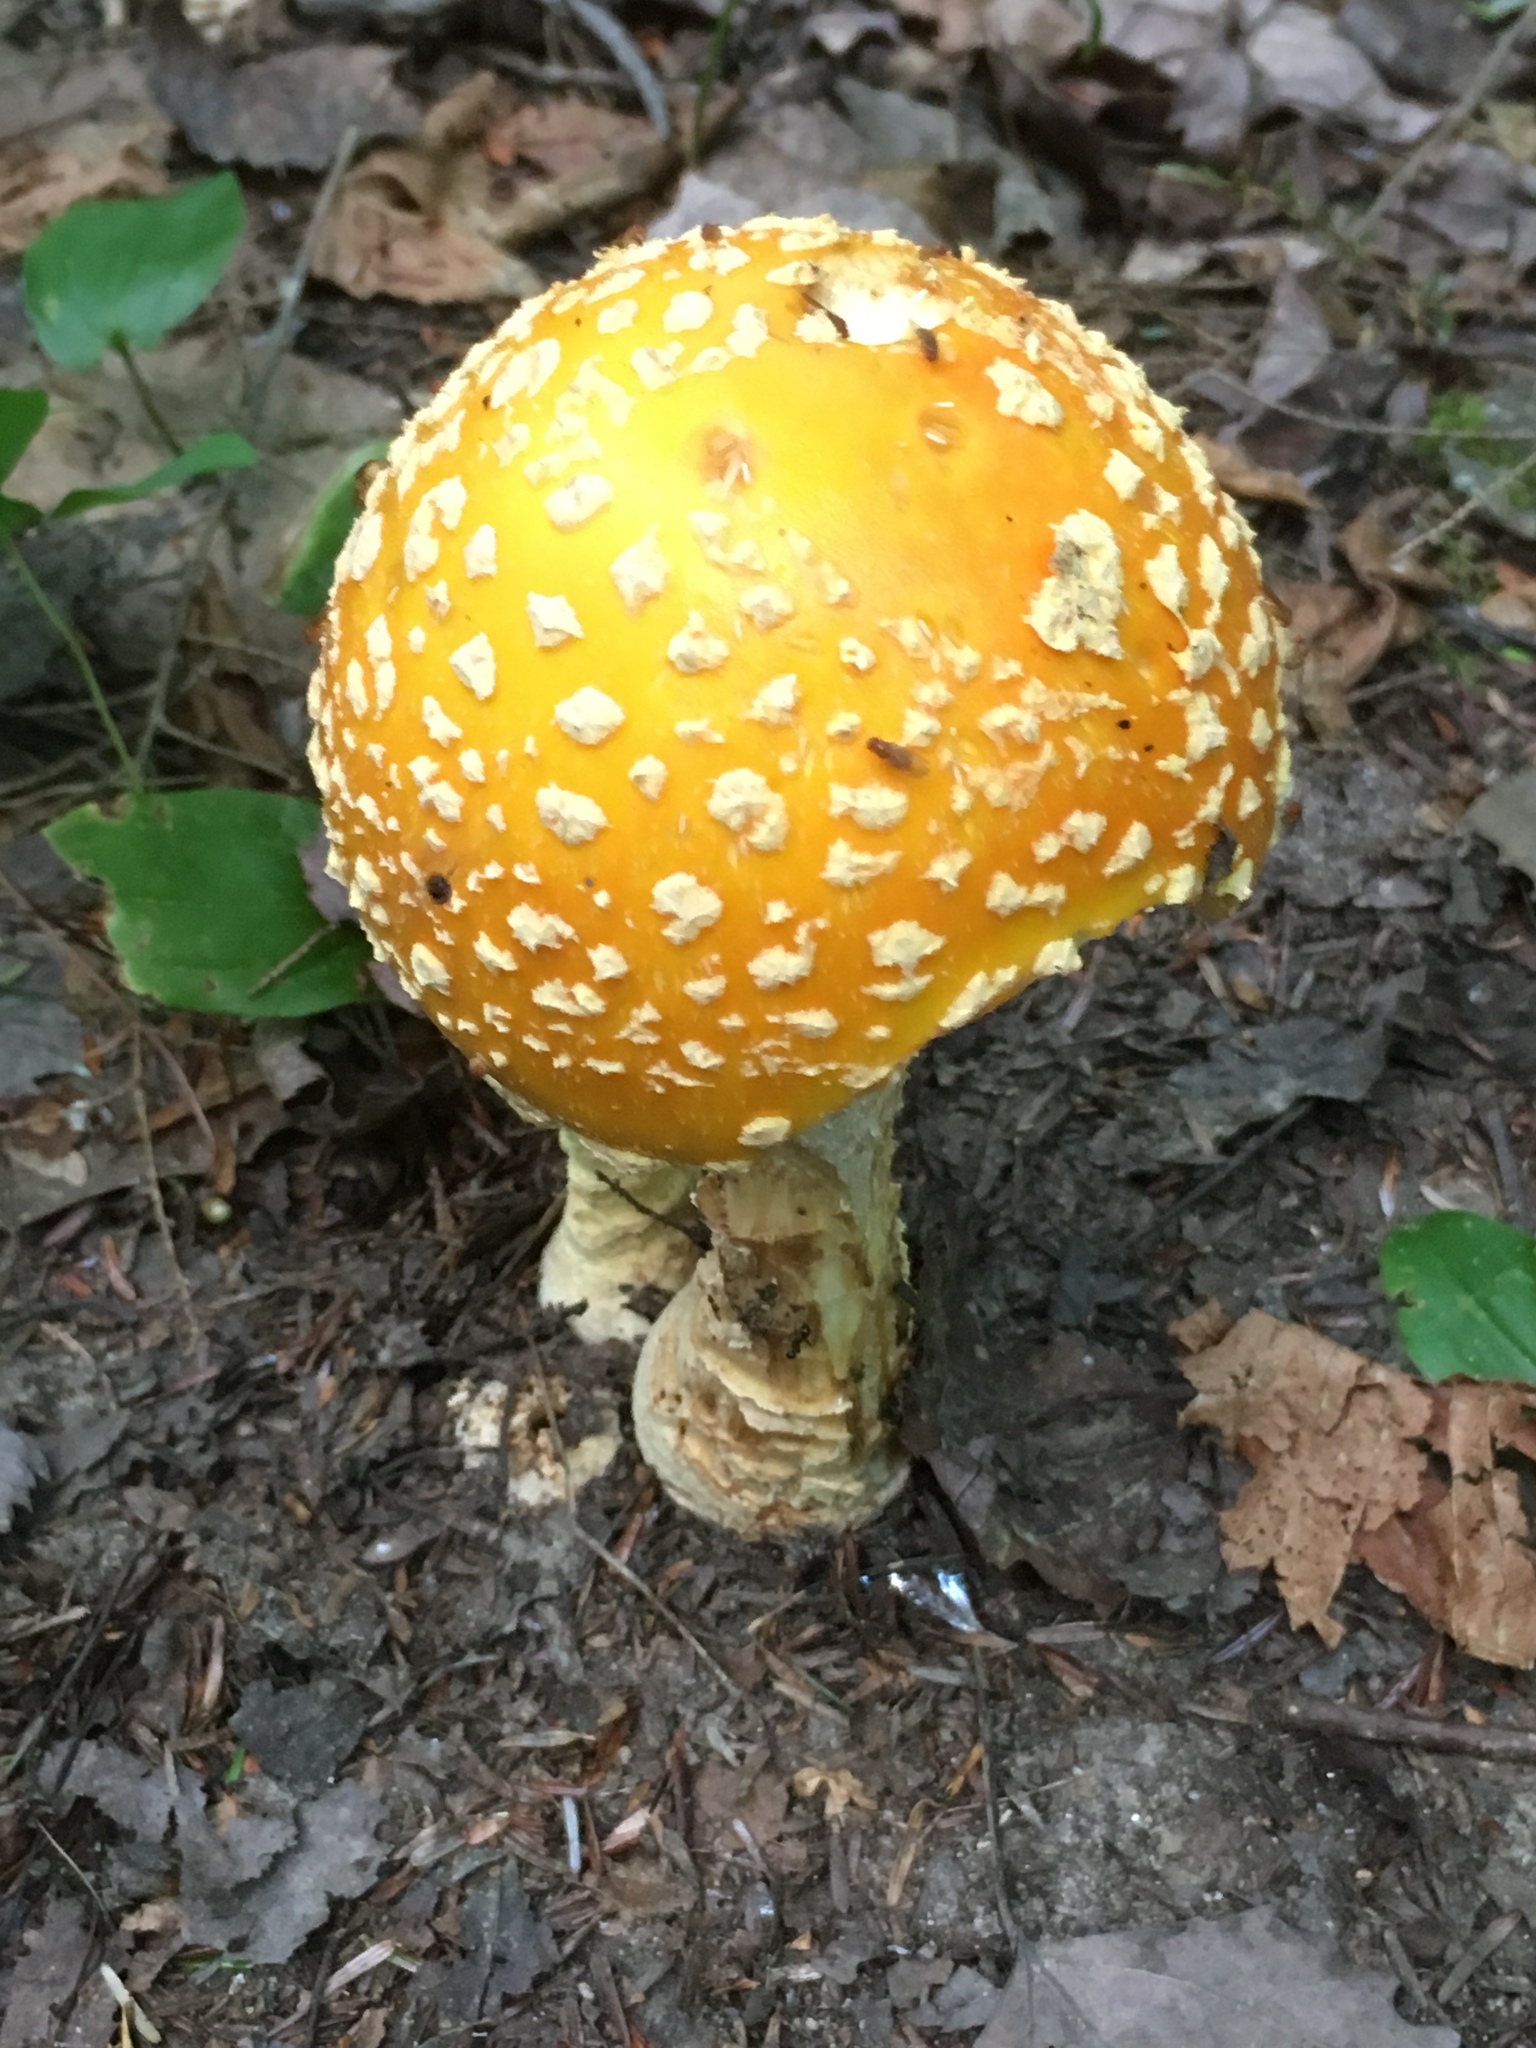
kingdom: Fungi
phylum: Basidiomycota
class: Agaricomycetes
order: Agaricales
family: Amanitaceae
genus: Amanita
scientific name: Amanita muscaria
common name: Fly agaric
